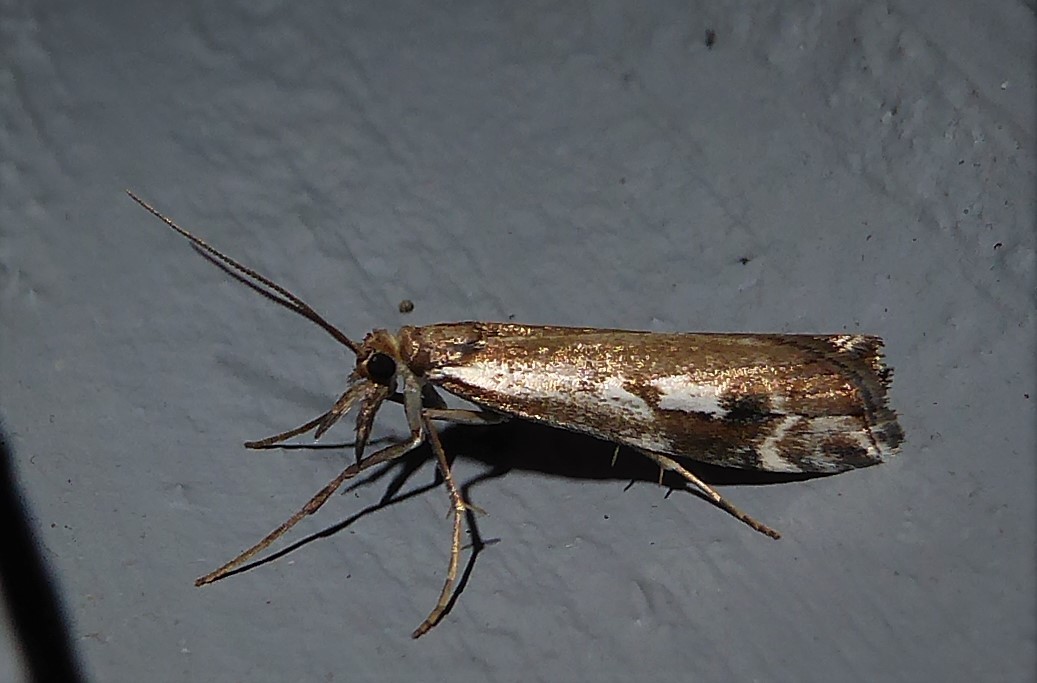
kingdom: Animalia
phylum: Arthropoda
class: Insecta
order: Lepidoptera
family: Crambidae
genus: Orocrambus
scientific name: Orocrambus vulgaris
